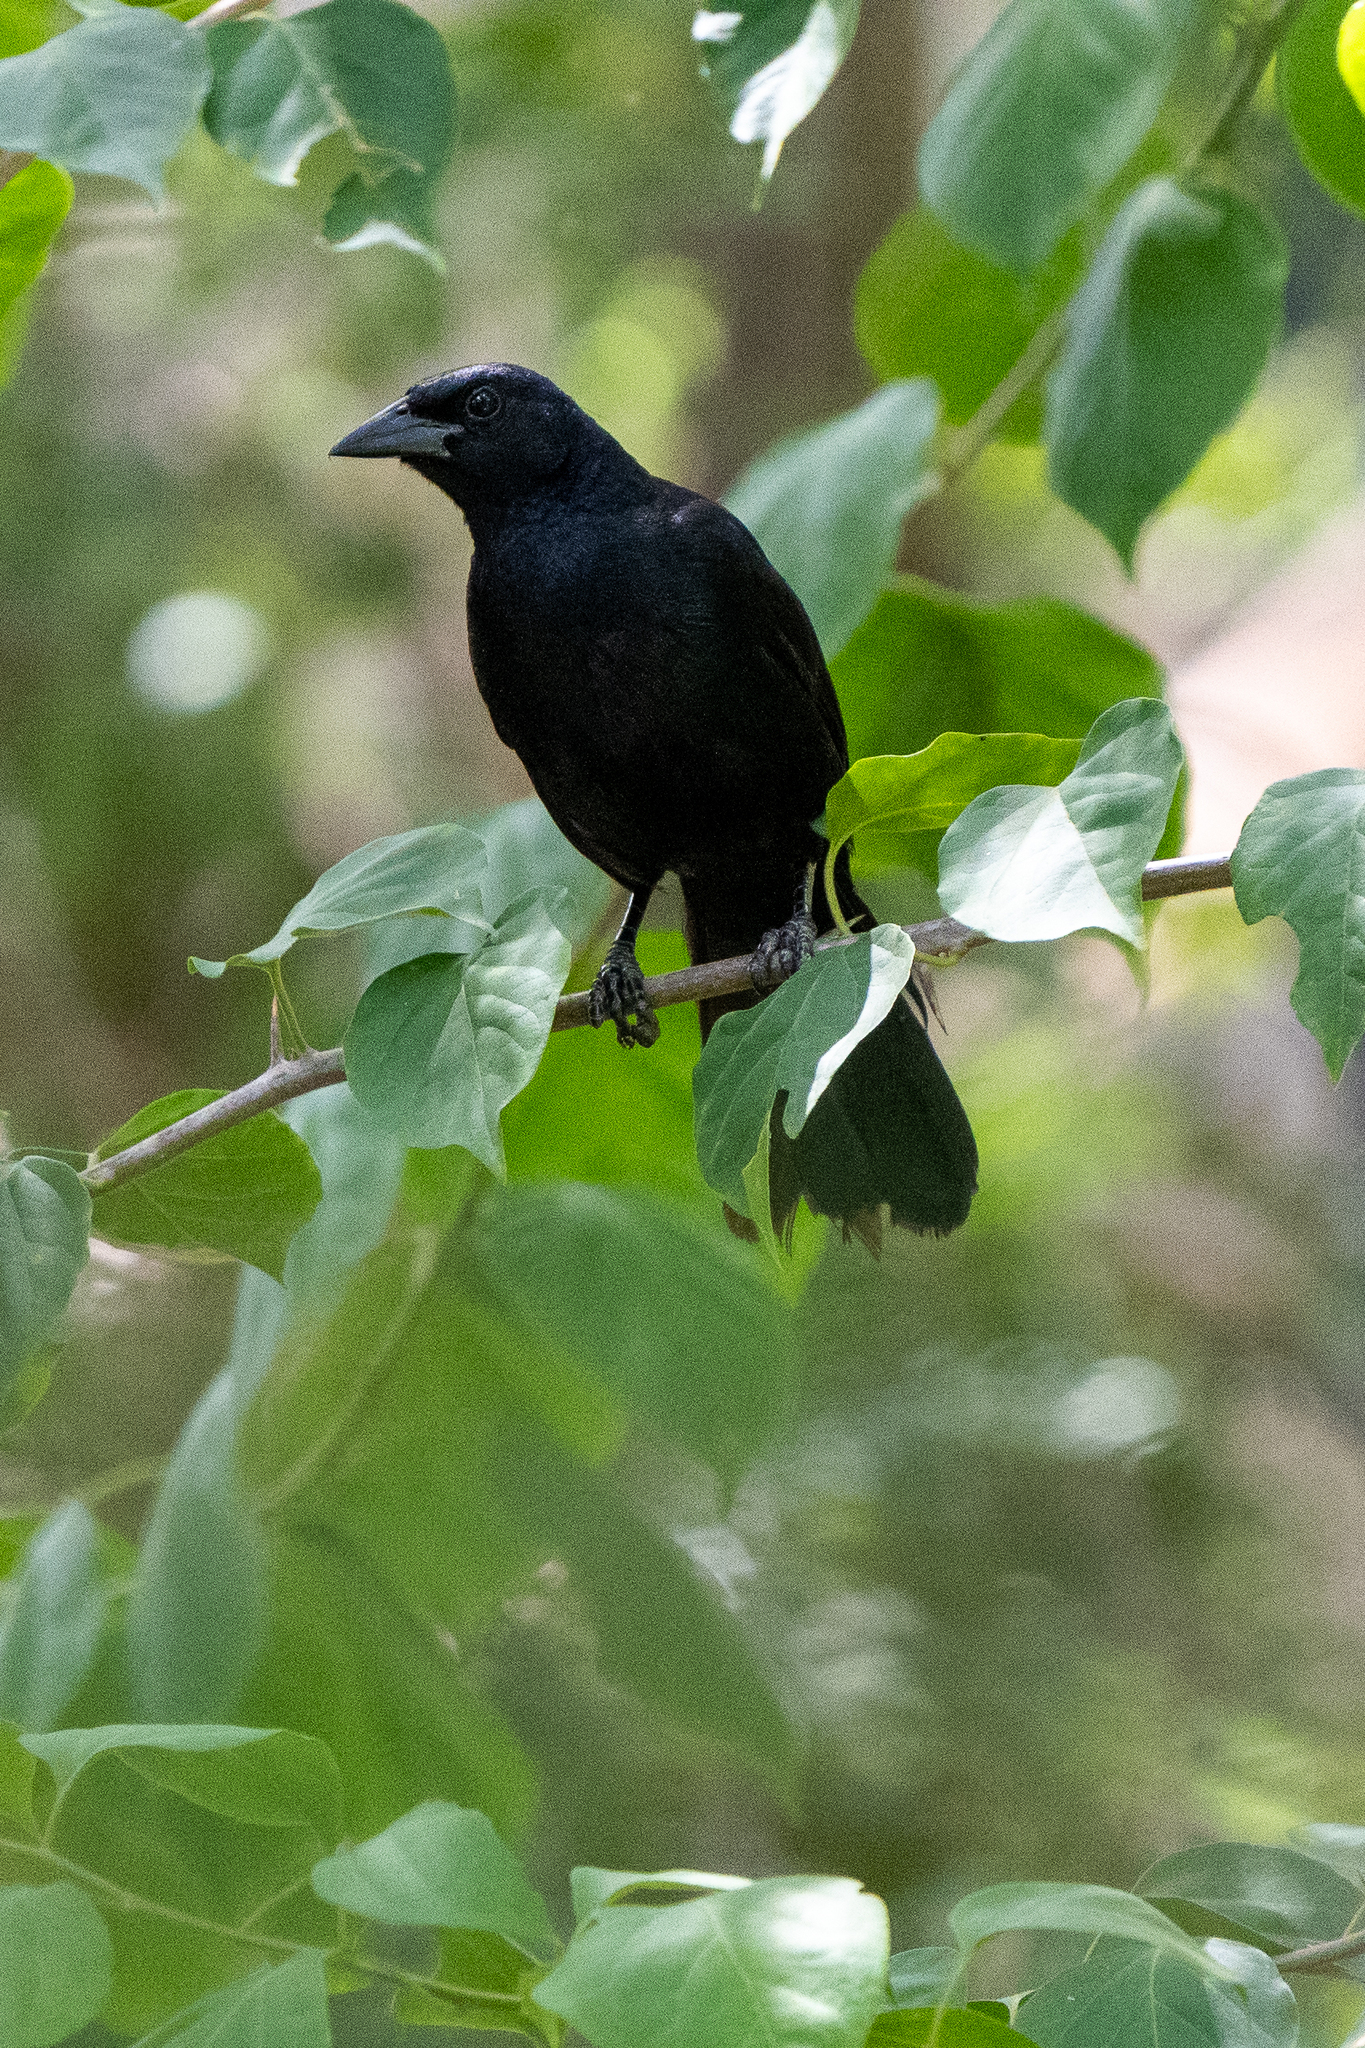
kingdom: Animalia
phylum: Chordata
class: Aves
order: Passeriformes
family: Icteridae
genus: Dives
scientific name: Dives dives
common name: Melodious blackbird
